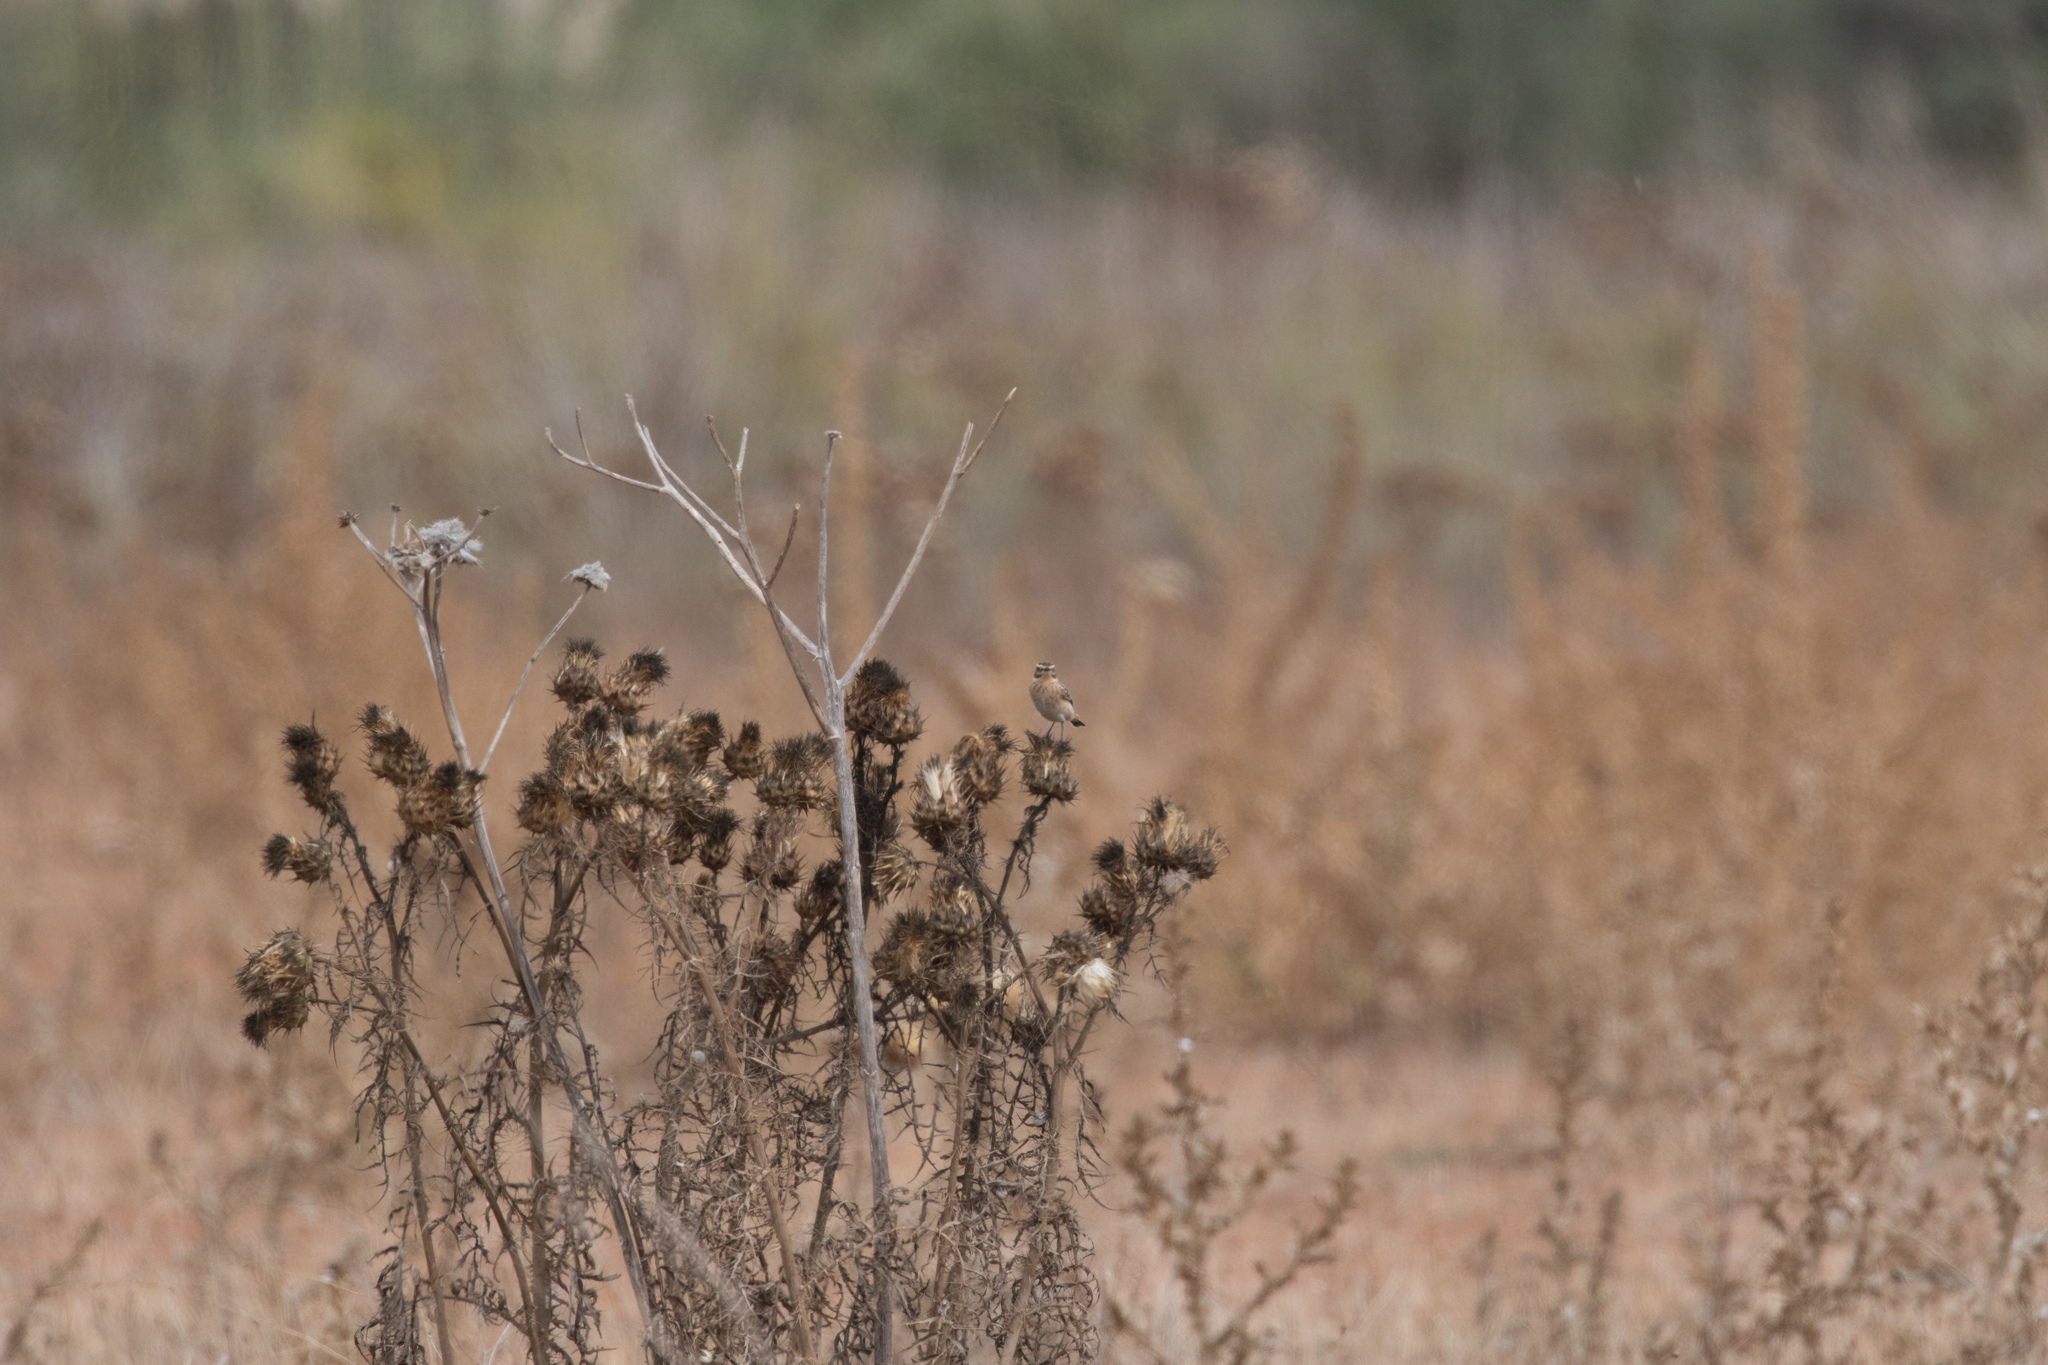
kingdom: Animalia
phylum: Chordata
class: Aves
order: Passeriformes
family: Muscicapidae
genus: Saxicola
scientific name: Saxicola rubetra
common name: Whinchat
